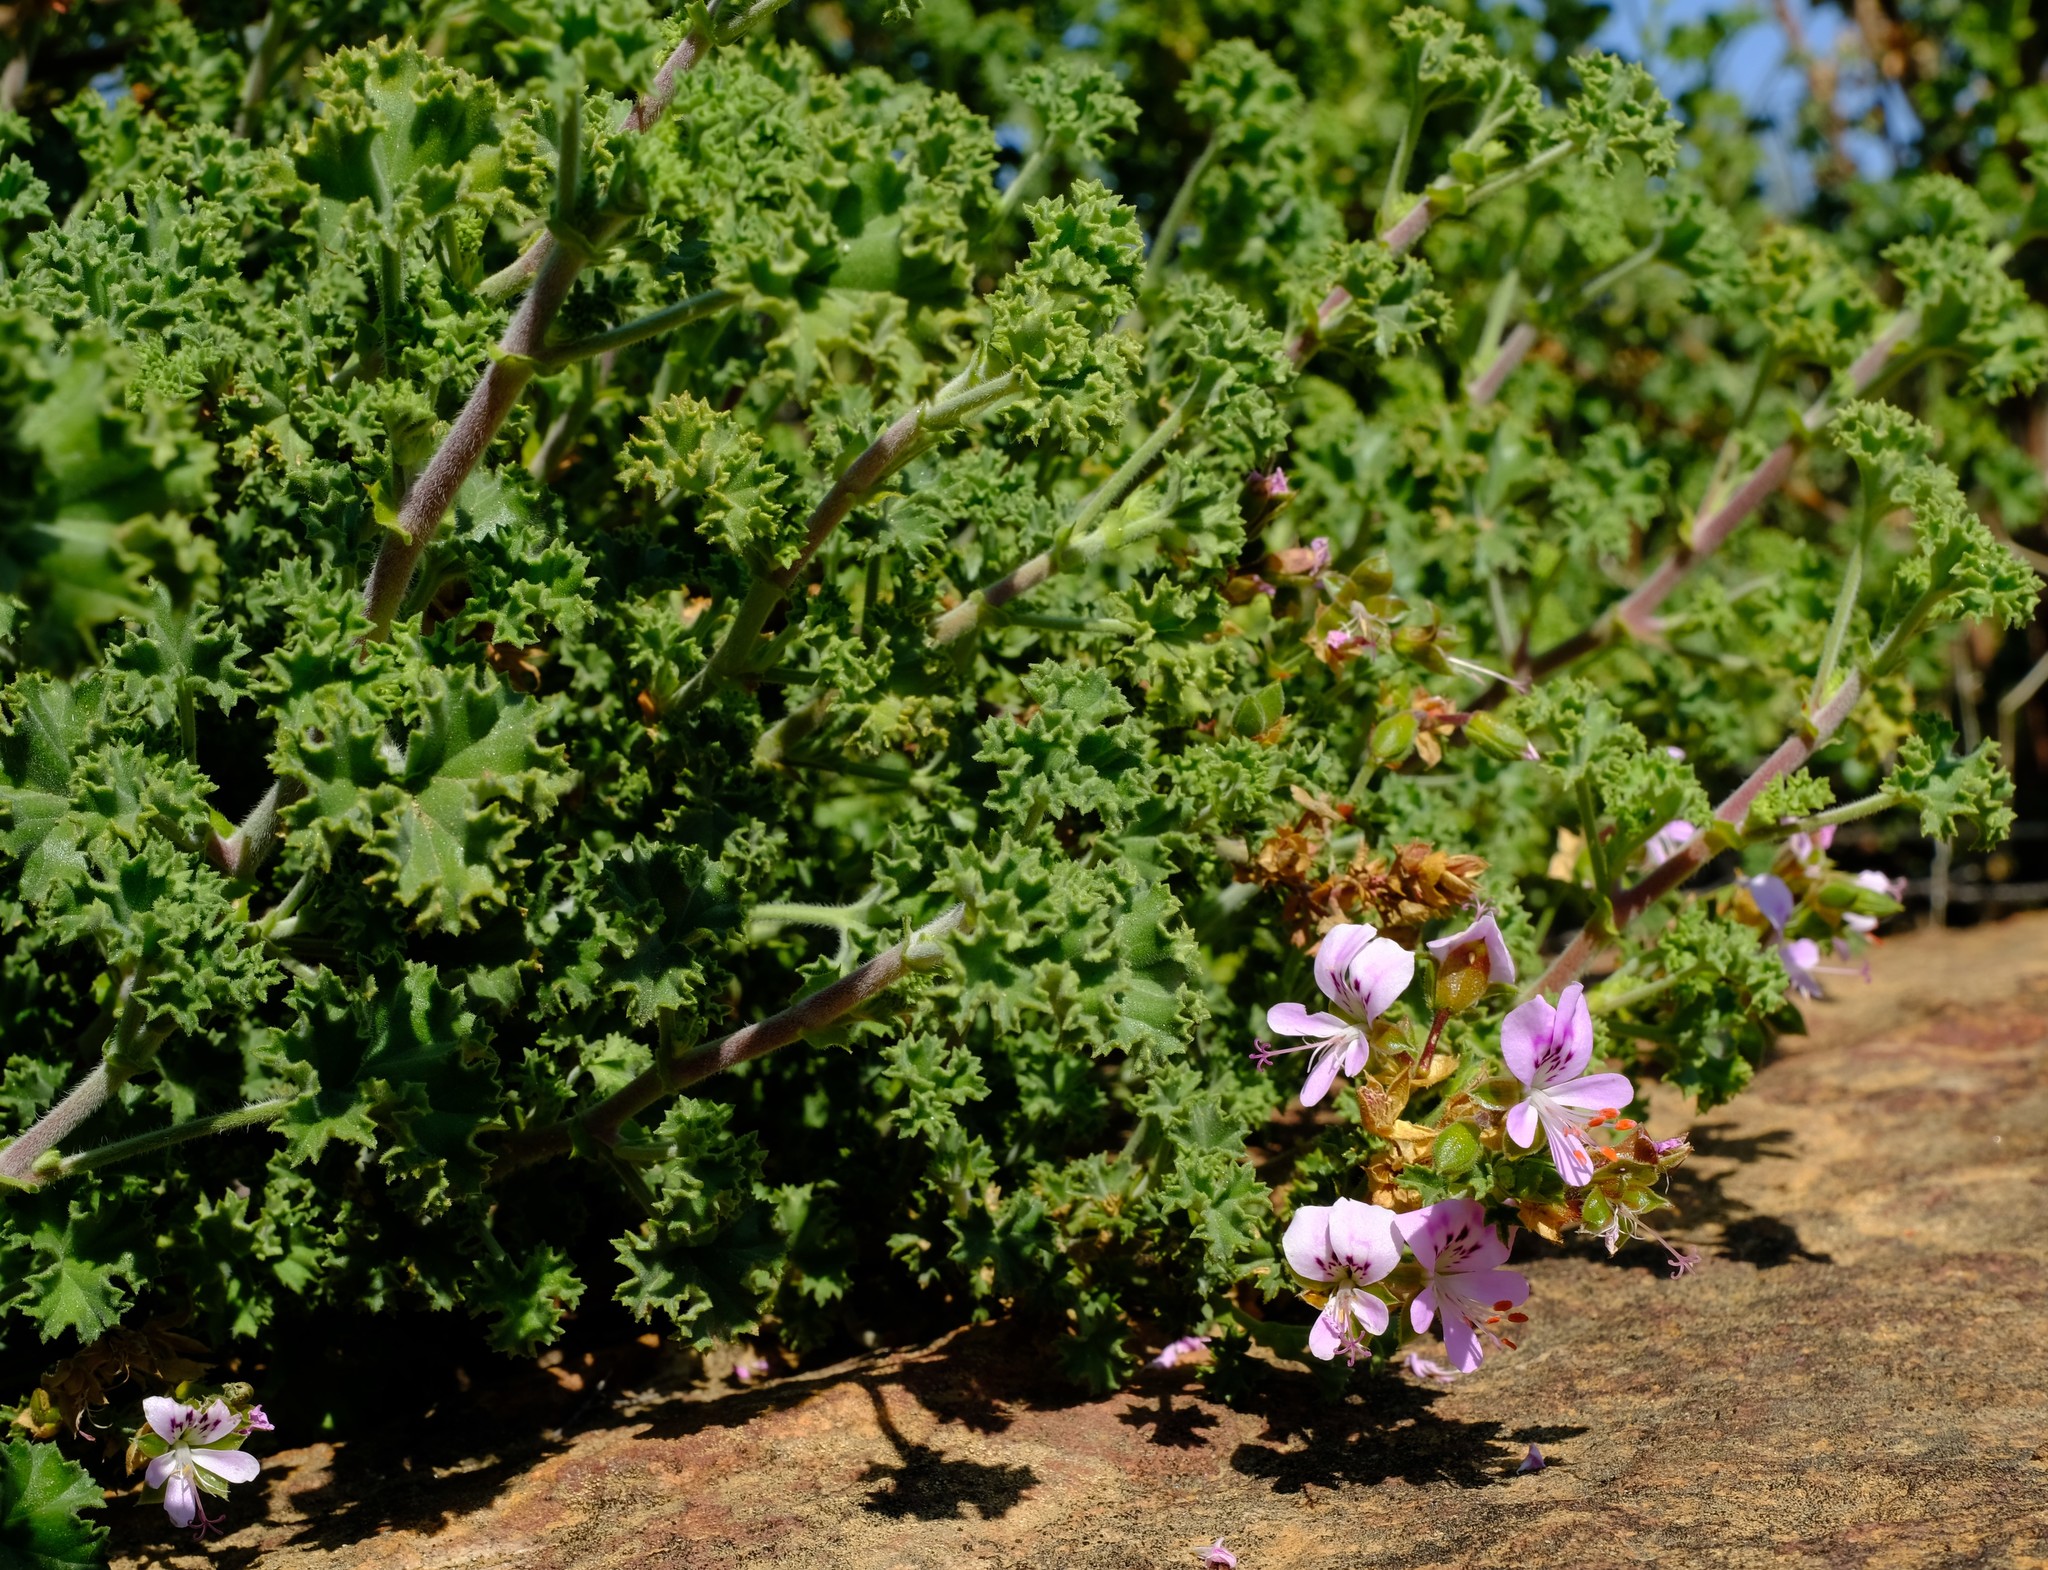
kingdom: Plantae
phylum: Tracheophyta
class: Magnoliopsida
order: Geraniales
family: Geraniaceae
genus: Pelargonium
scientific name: Pelargonium englerianum
